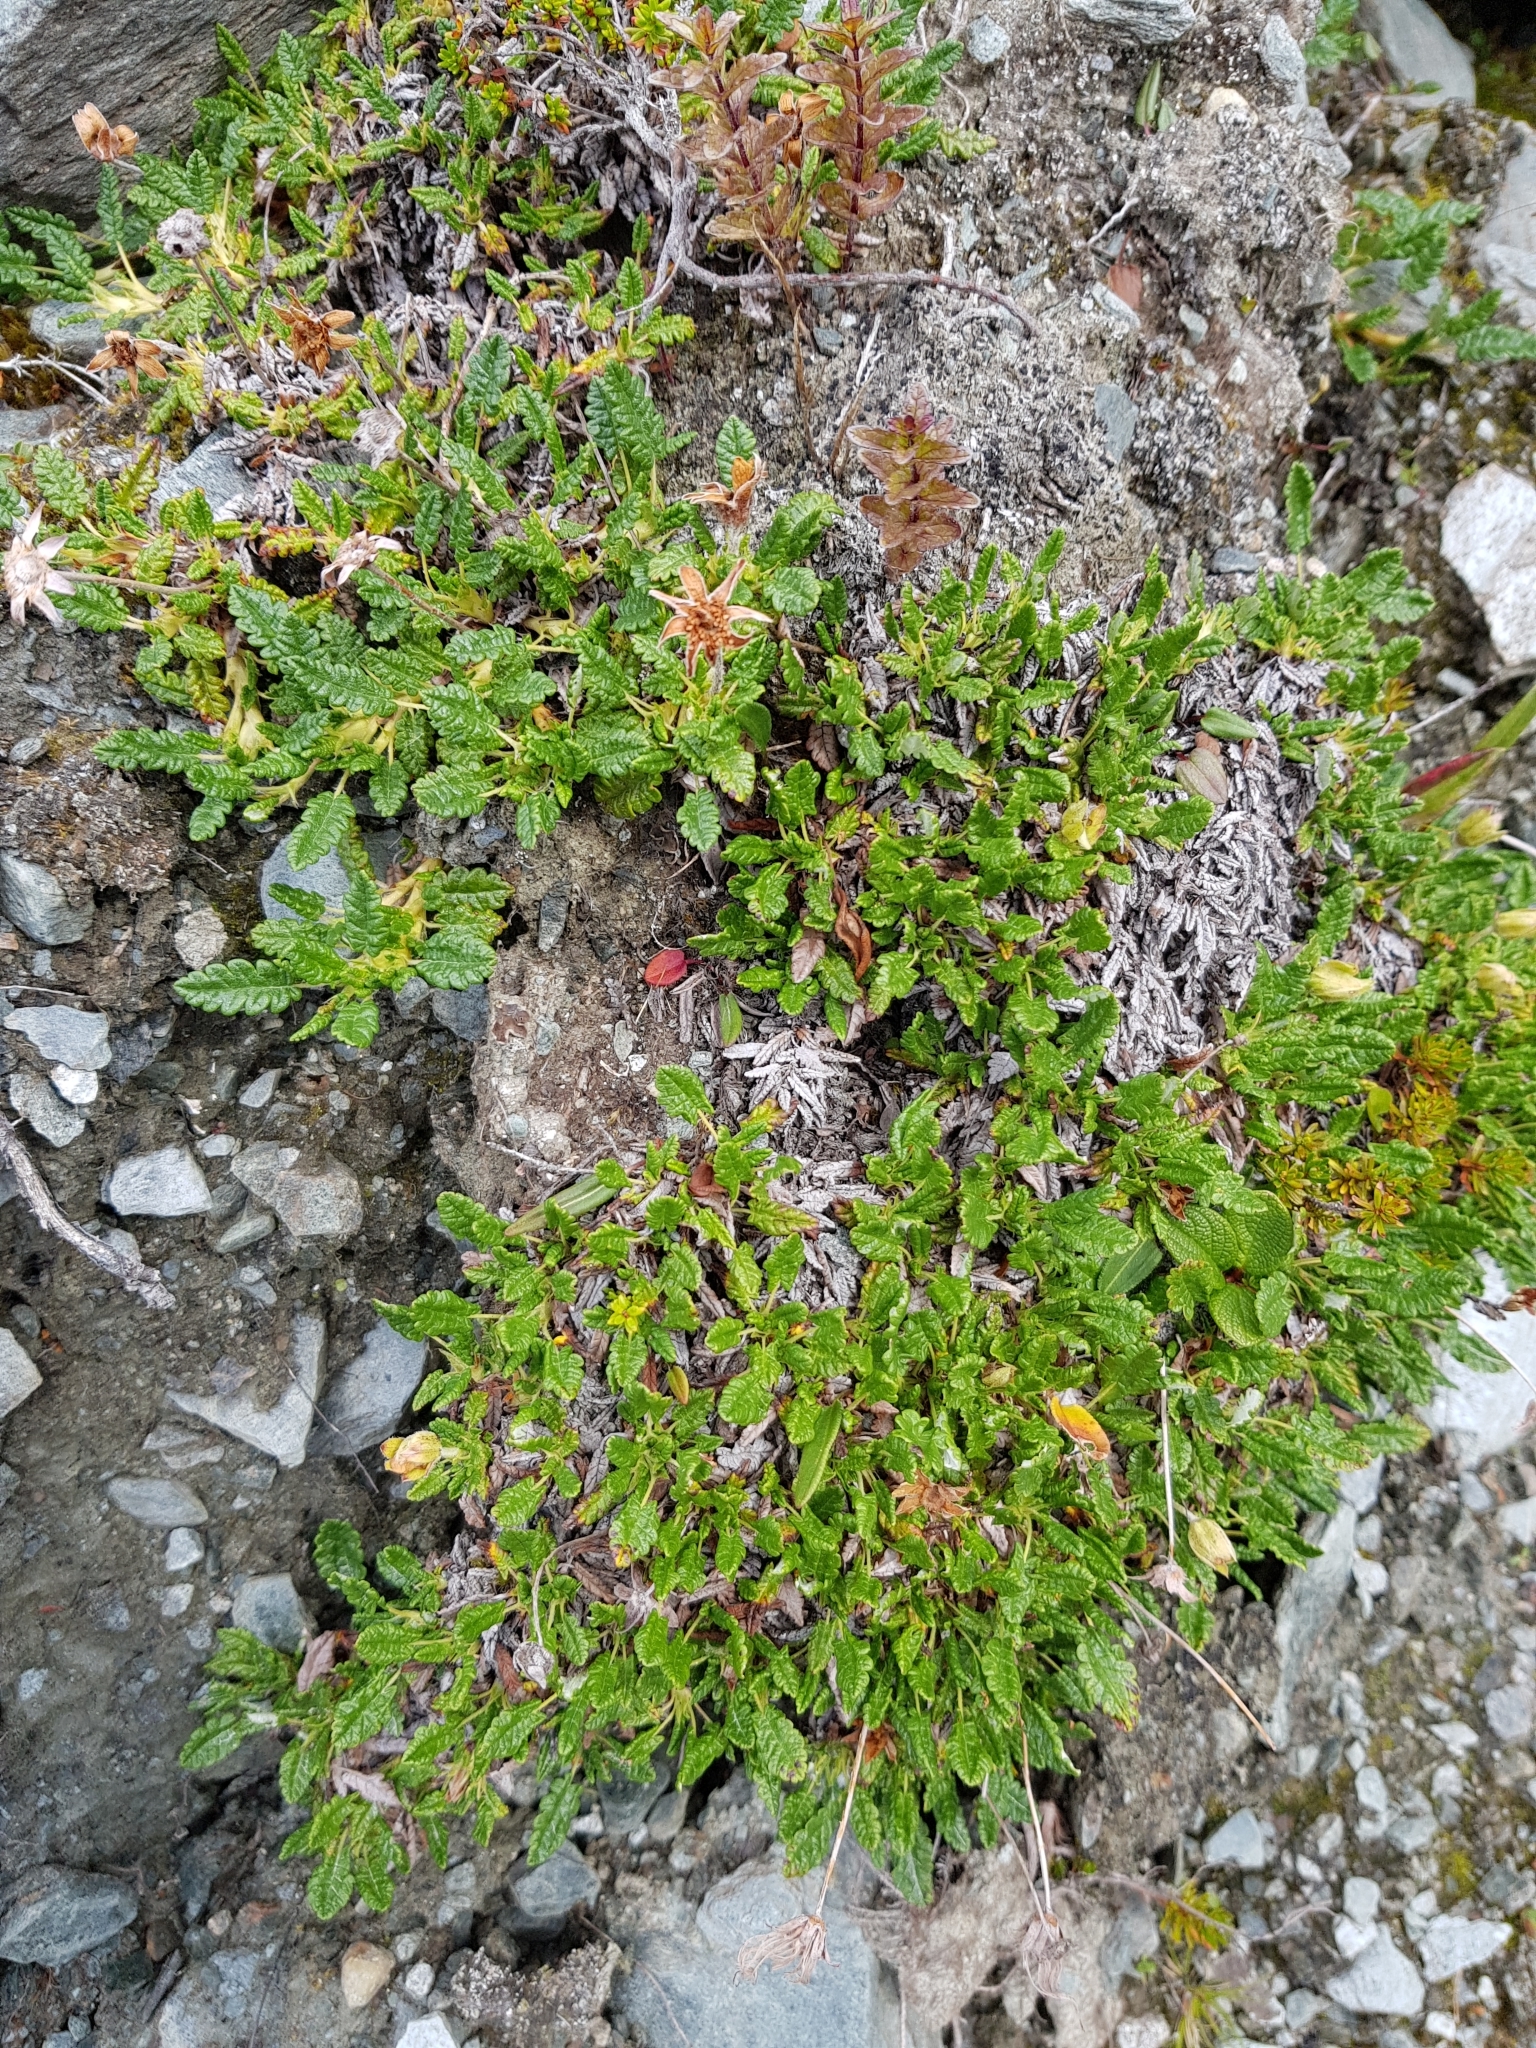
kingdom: Plantae
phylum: Tracheophyta
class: Magnoliopsida
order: Rosales
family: Rosaceae
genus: Dryas
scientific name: Dryas octopetala
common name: Eight-petal mountain-avens
